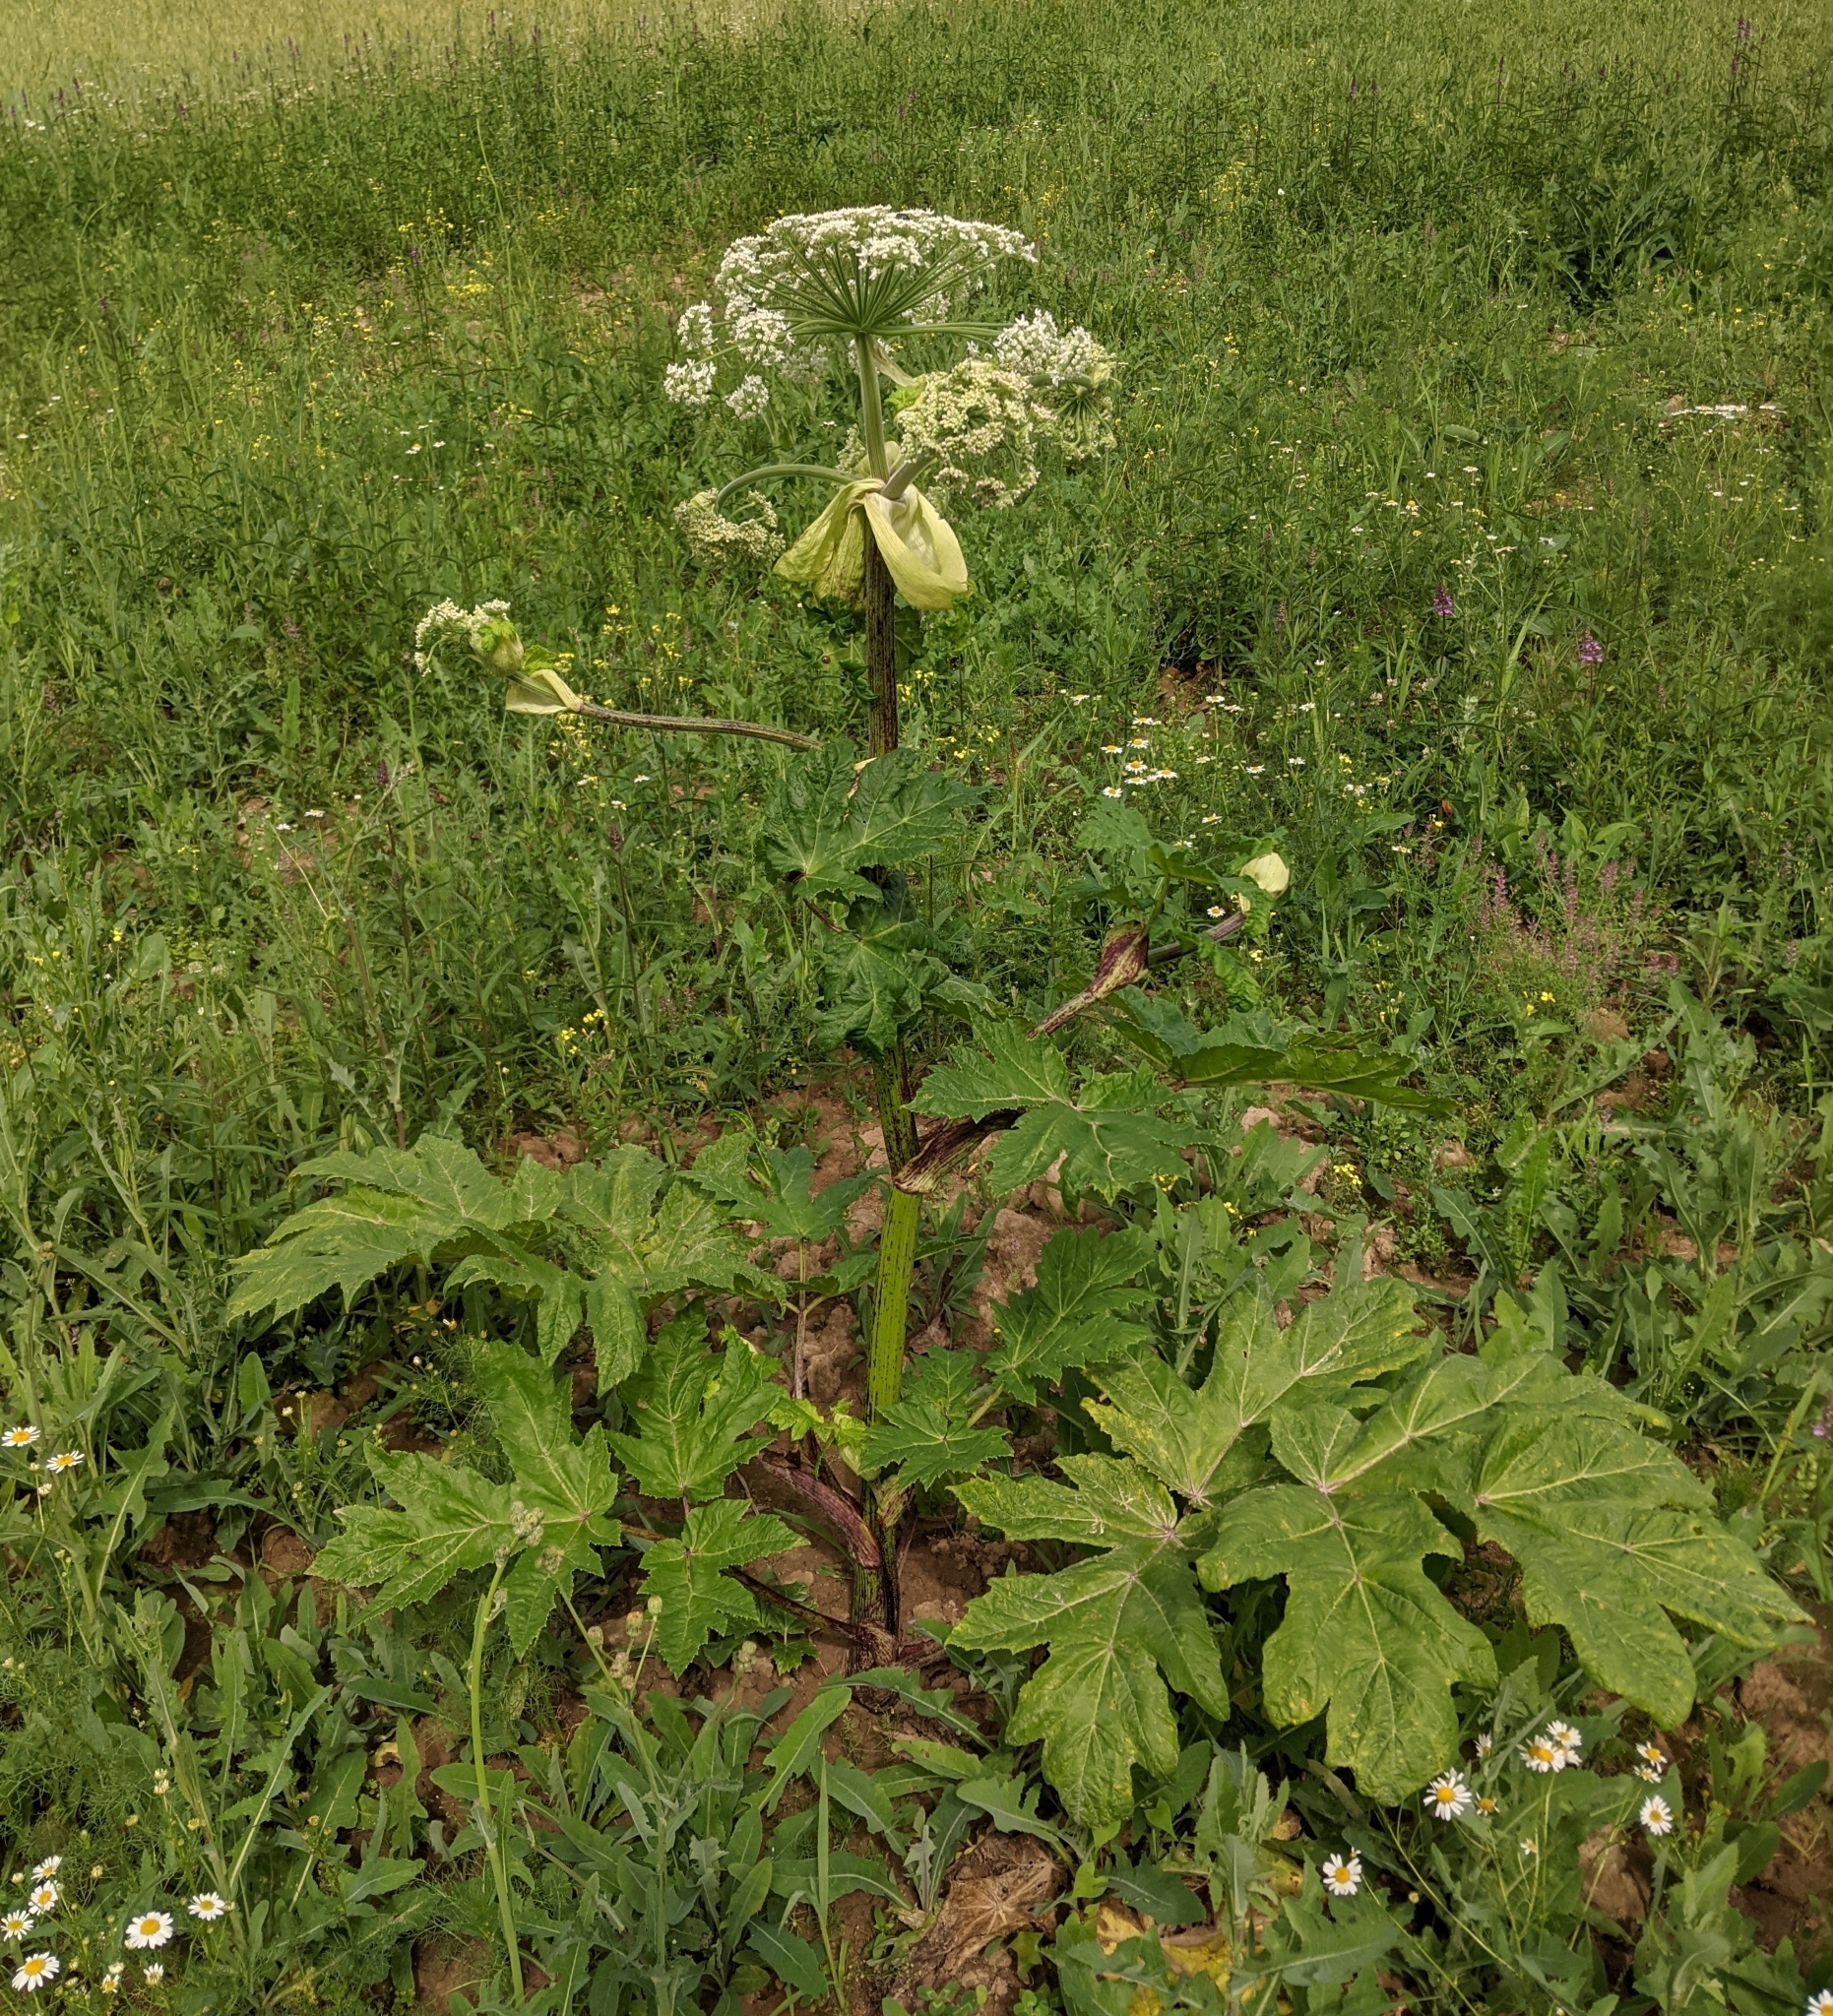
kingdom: Plantae
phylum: Tracheophyta
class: Magnoliopsida
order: Apiales
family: Apiaceae
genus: Heracleum
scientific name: Heracleum sosnowskyi
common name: Sosnowsky's hogweed
